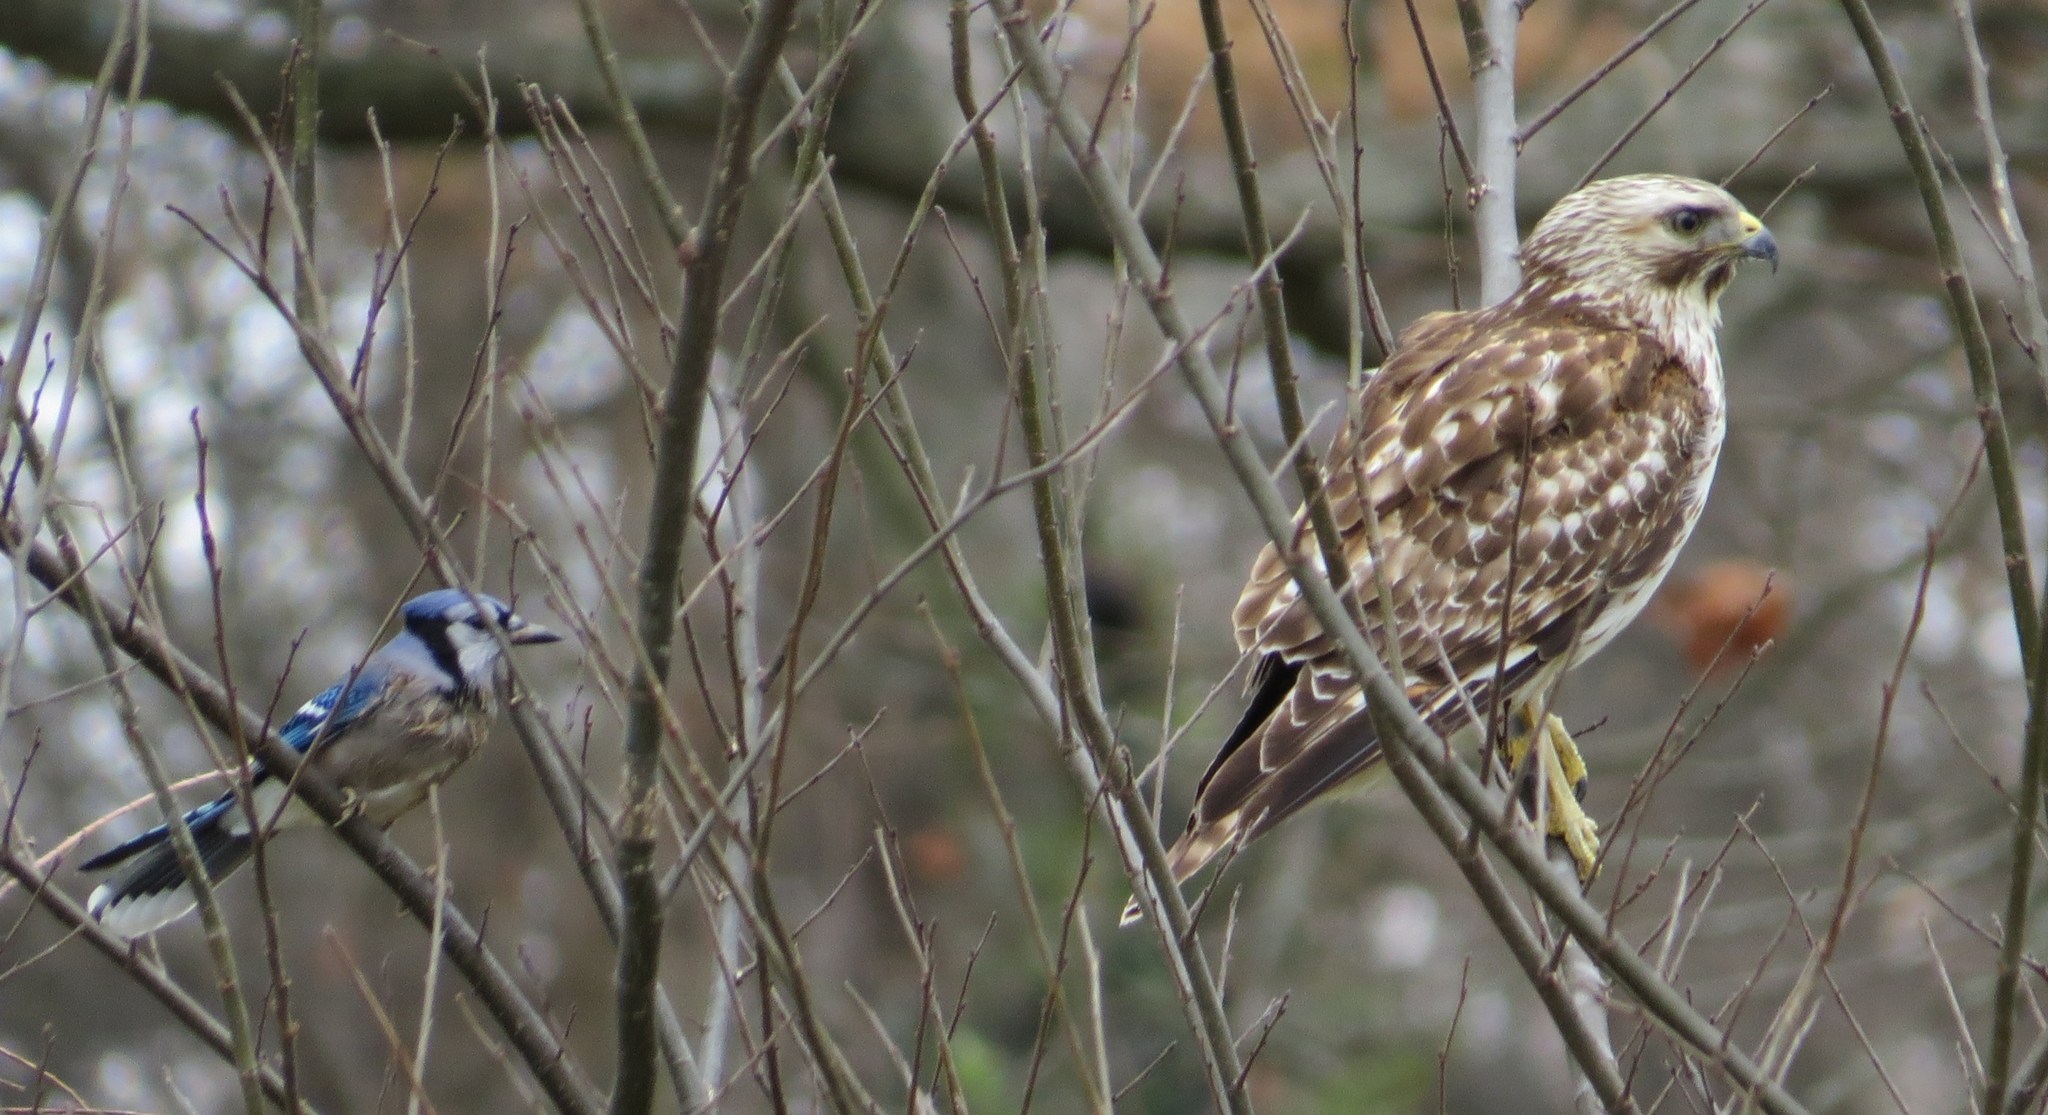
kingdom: Animalia
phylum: Chordata
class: Aves
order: Accipitriformes
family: Accipitridae
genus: Buteo
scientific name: Buteo lineatus
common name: Red-shouldered hawk
